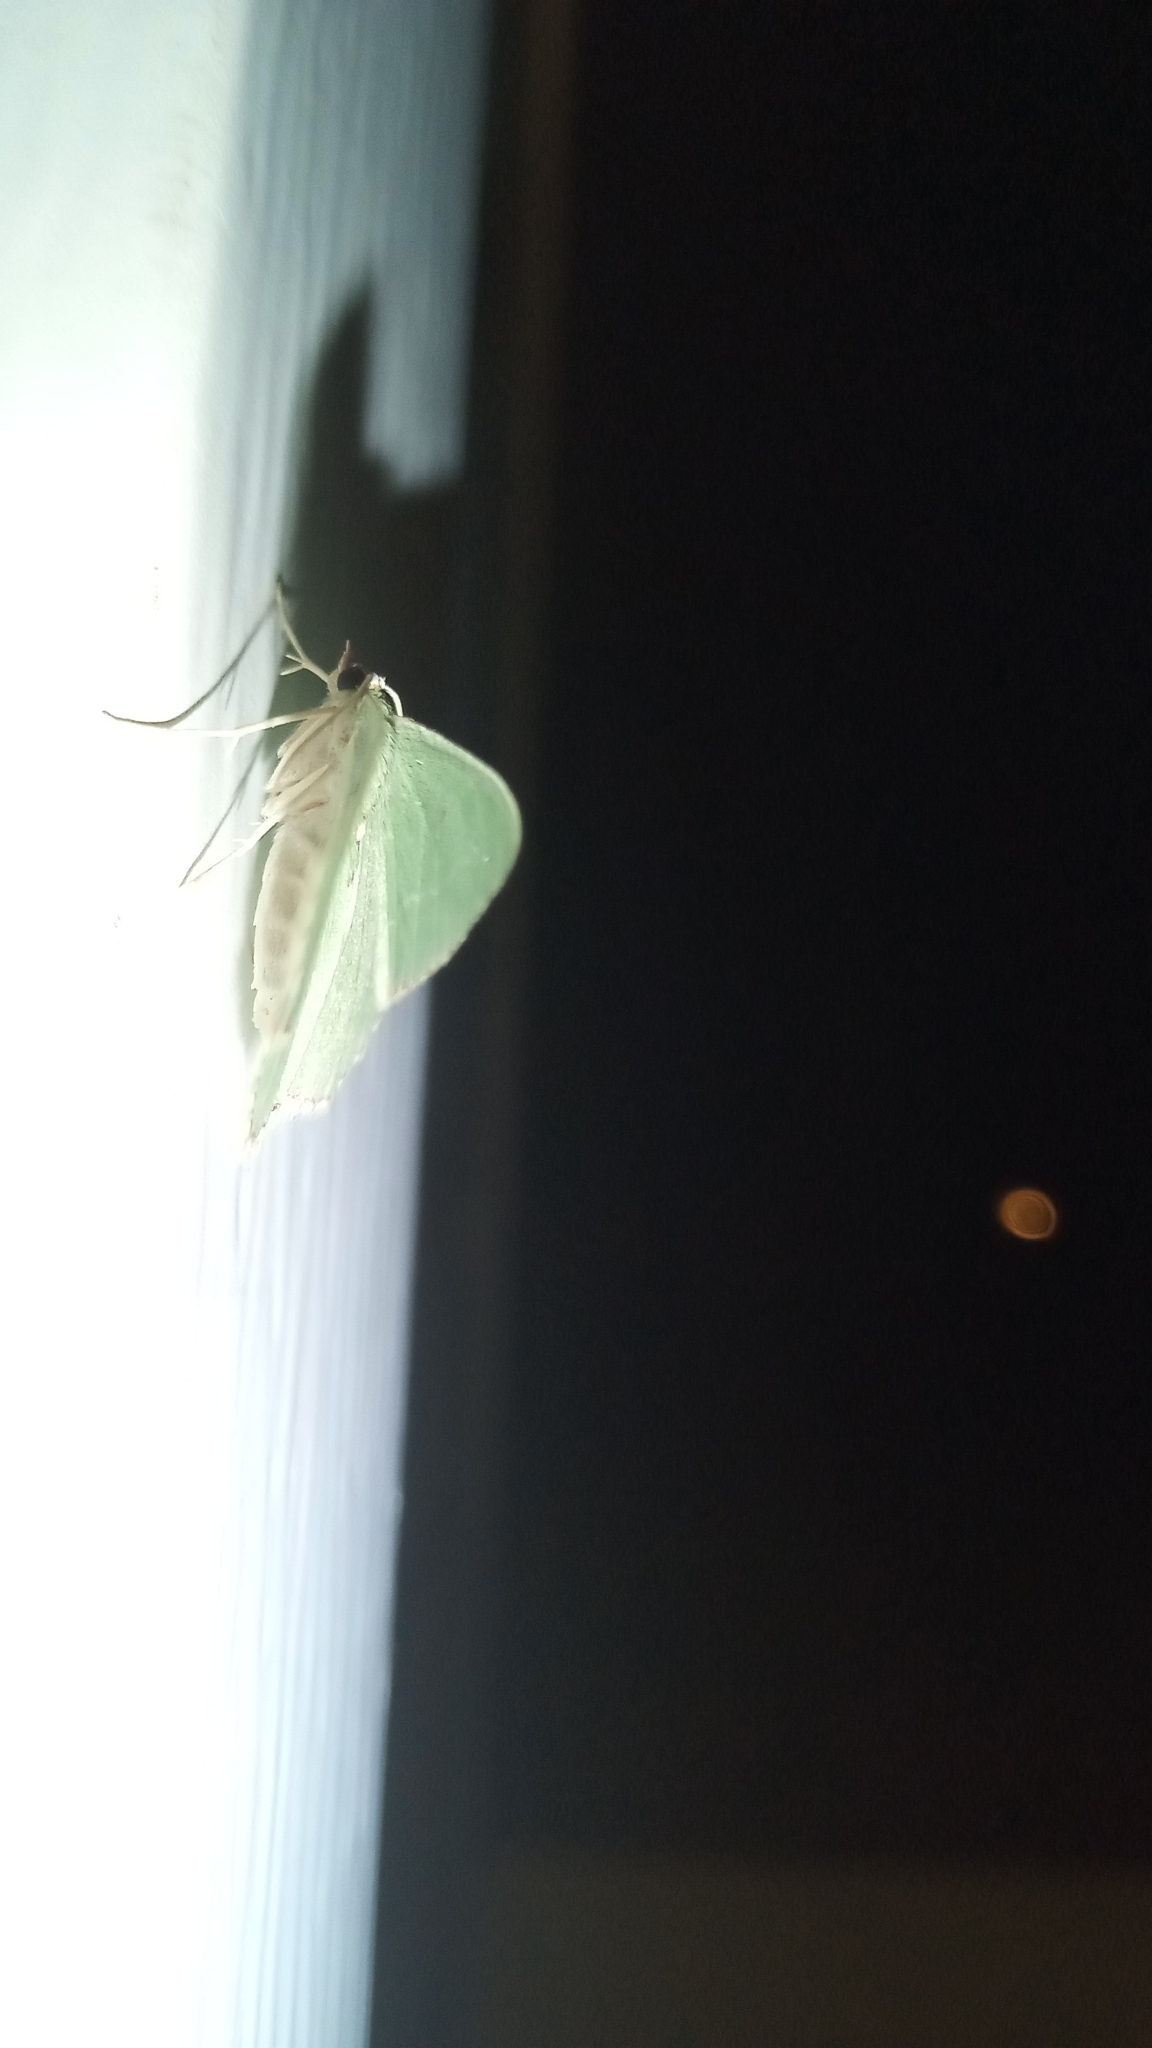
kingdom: Animalia
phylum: Arthropoda
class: Insecta
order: Lepidoptera
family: Geometridae
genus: Nemoria
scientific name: Nemoria lixaria
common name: Red-bordered emerald
